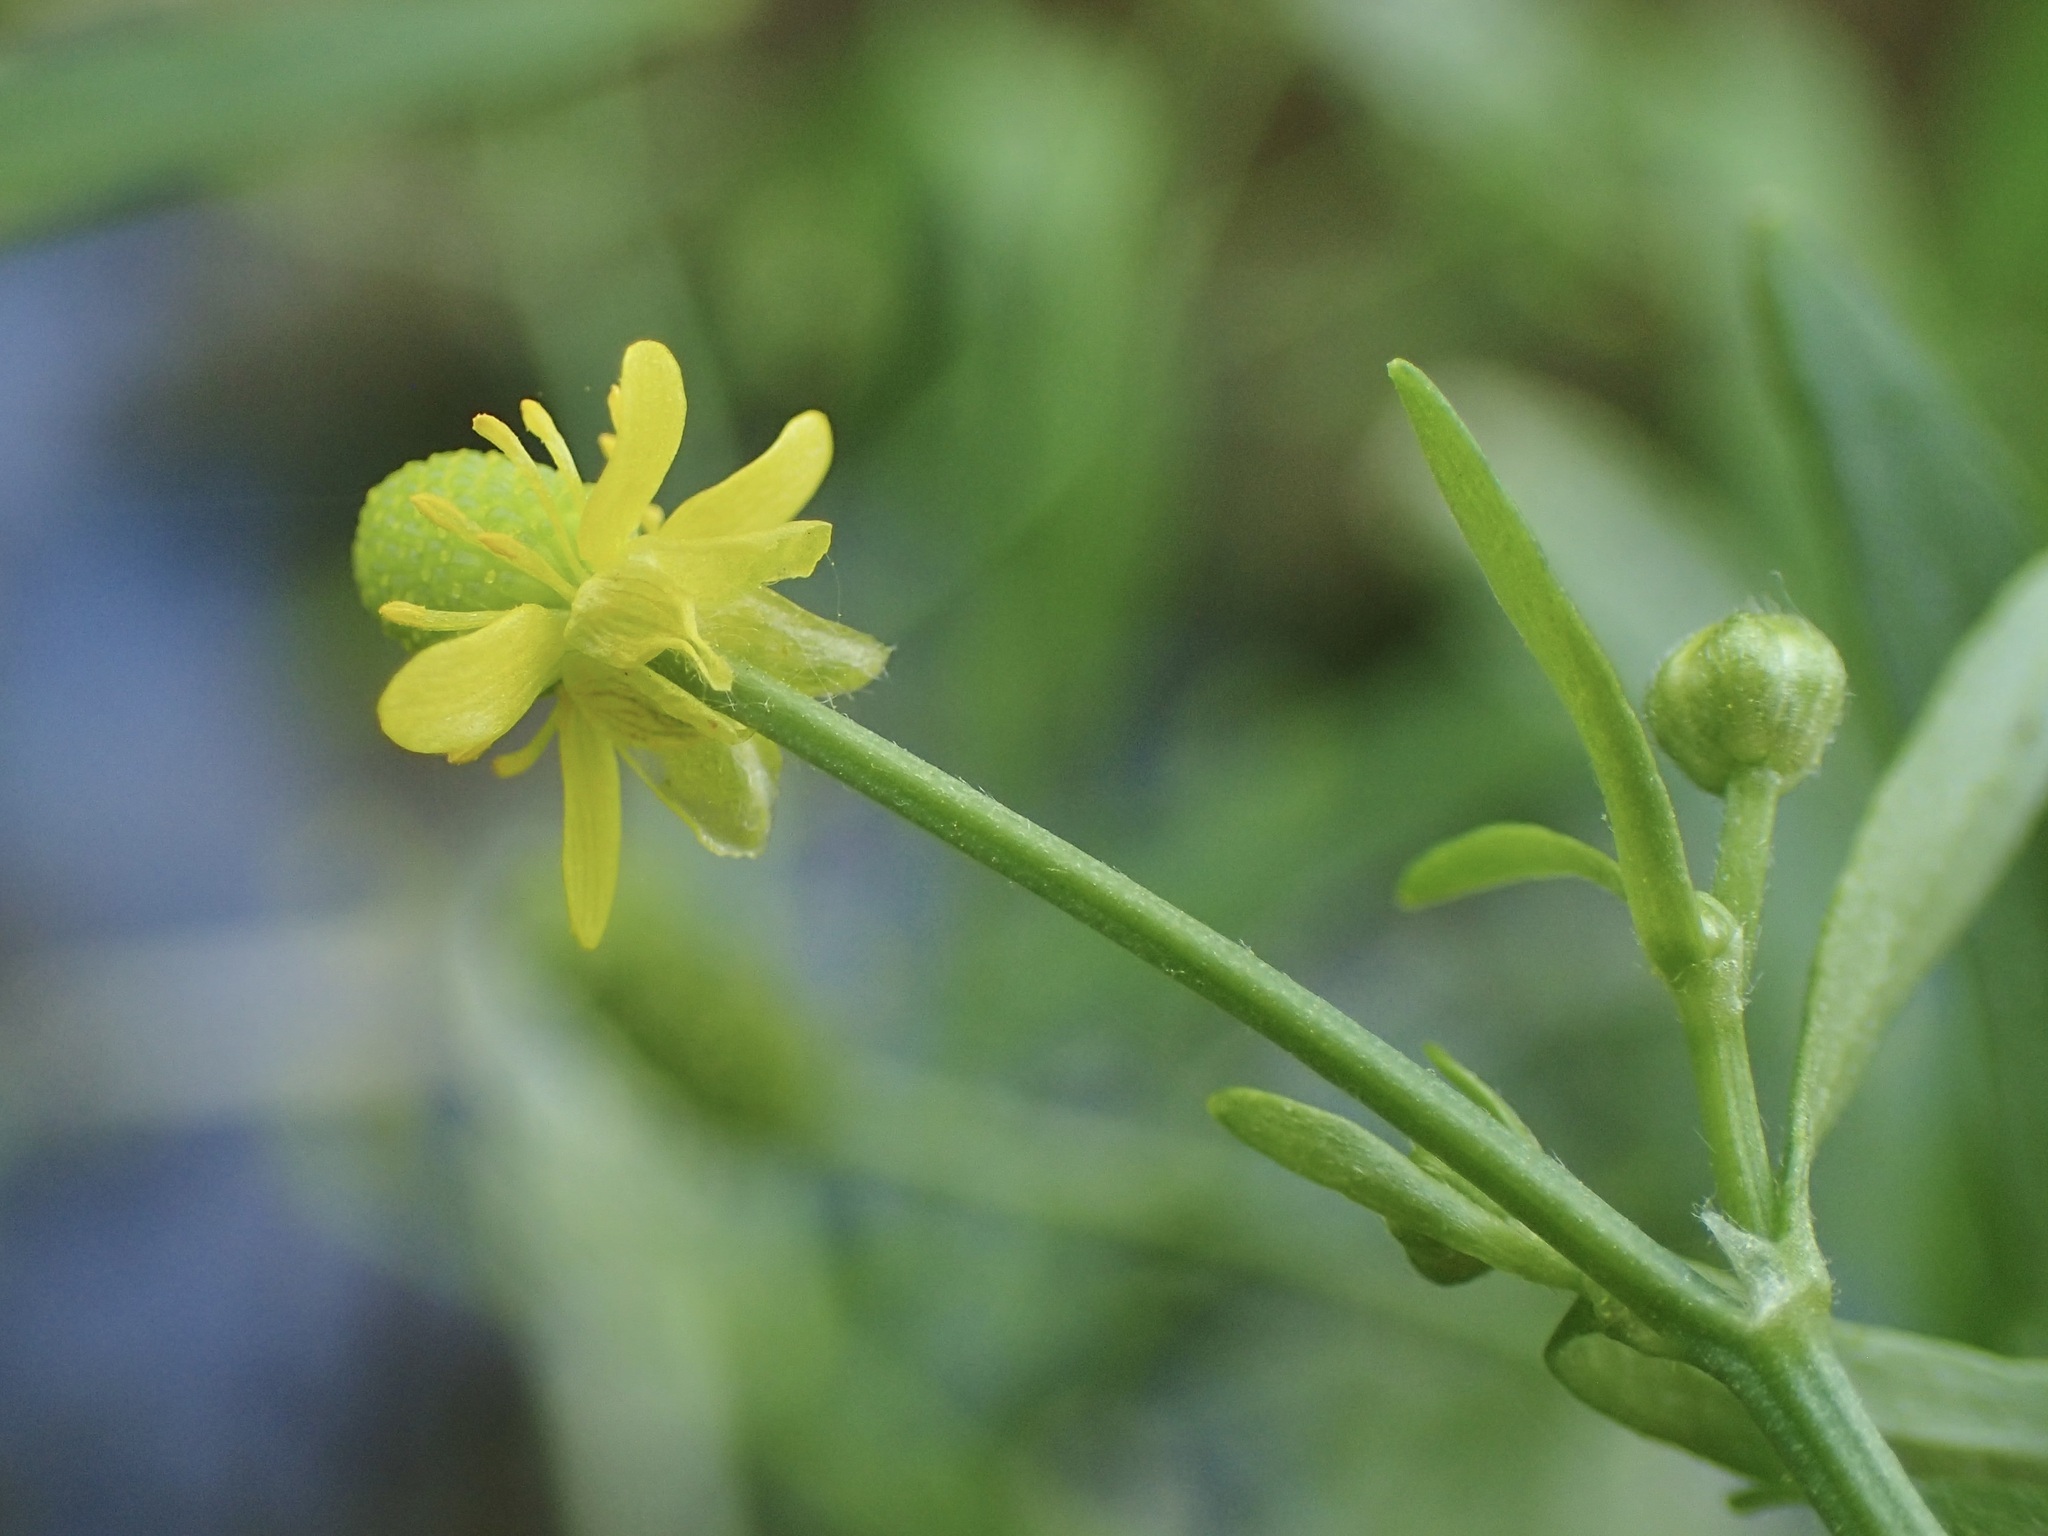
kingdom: Plantae
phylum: Tracheophyta
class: Magnoliopsida
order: Ranunculales
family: Ranunculaceae
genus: Ranunculus
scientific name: Ranunculus sceleratus
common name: Celery-leaved buttercup
